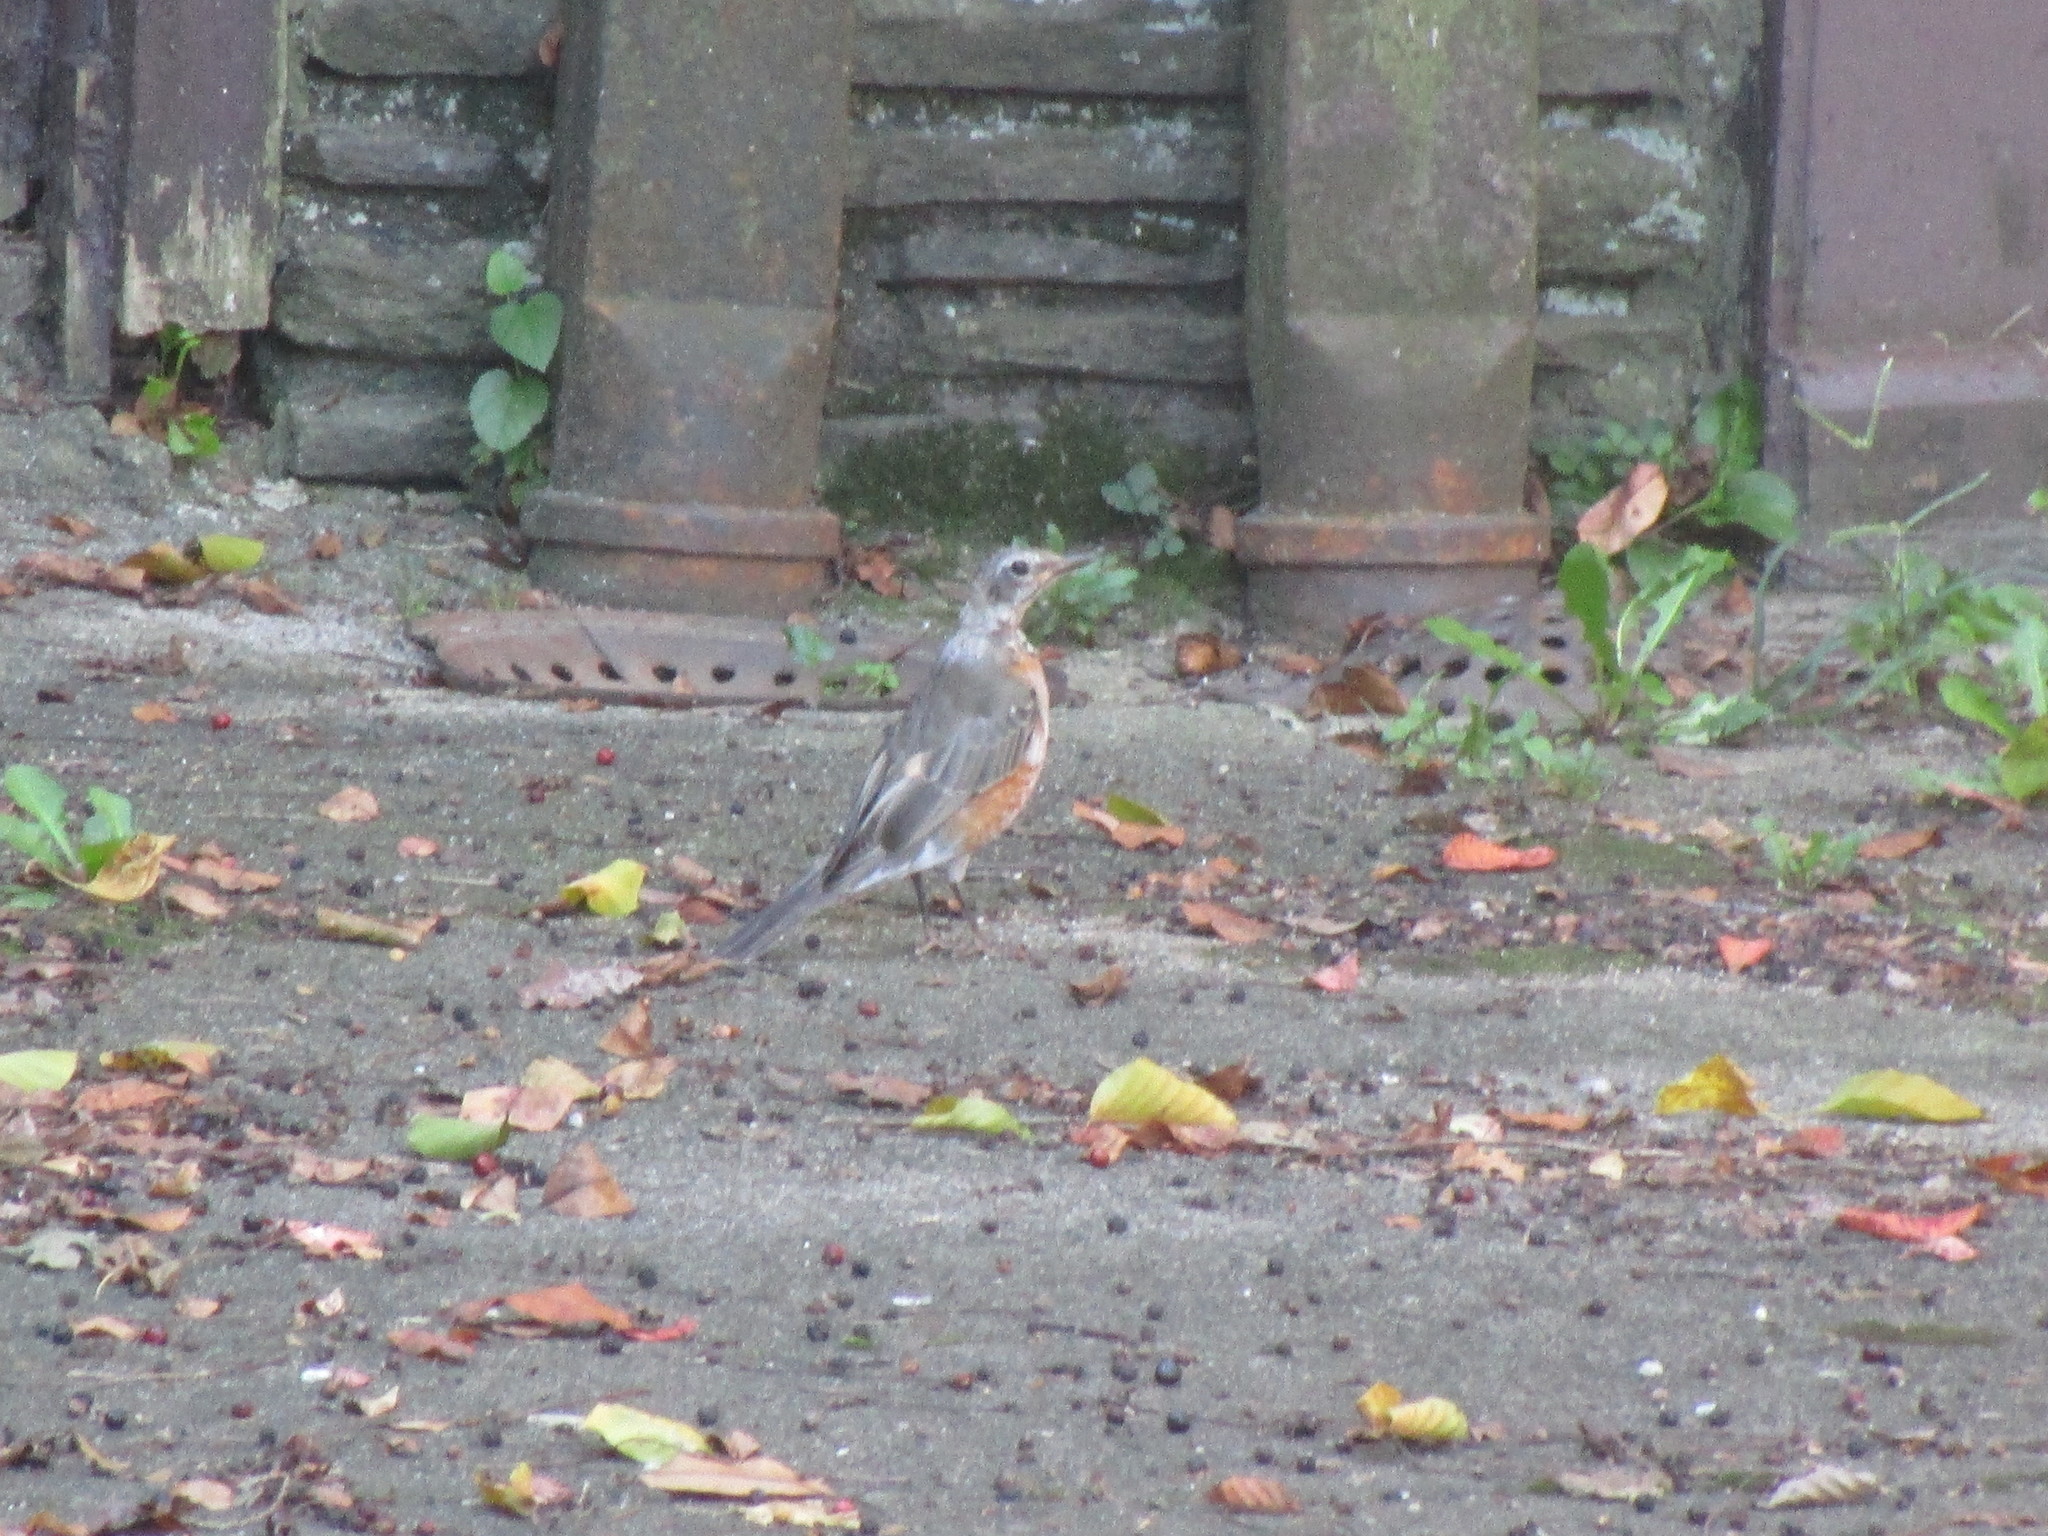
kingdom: Animalia
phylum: Chordata
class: Aves
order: Passeriformes
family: Turdidae
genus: Turdus
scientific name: Turdus migratorius
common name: American robin
